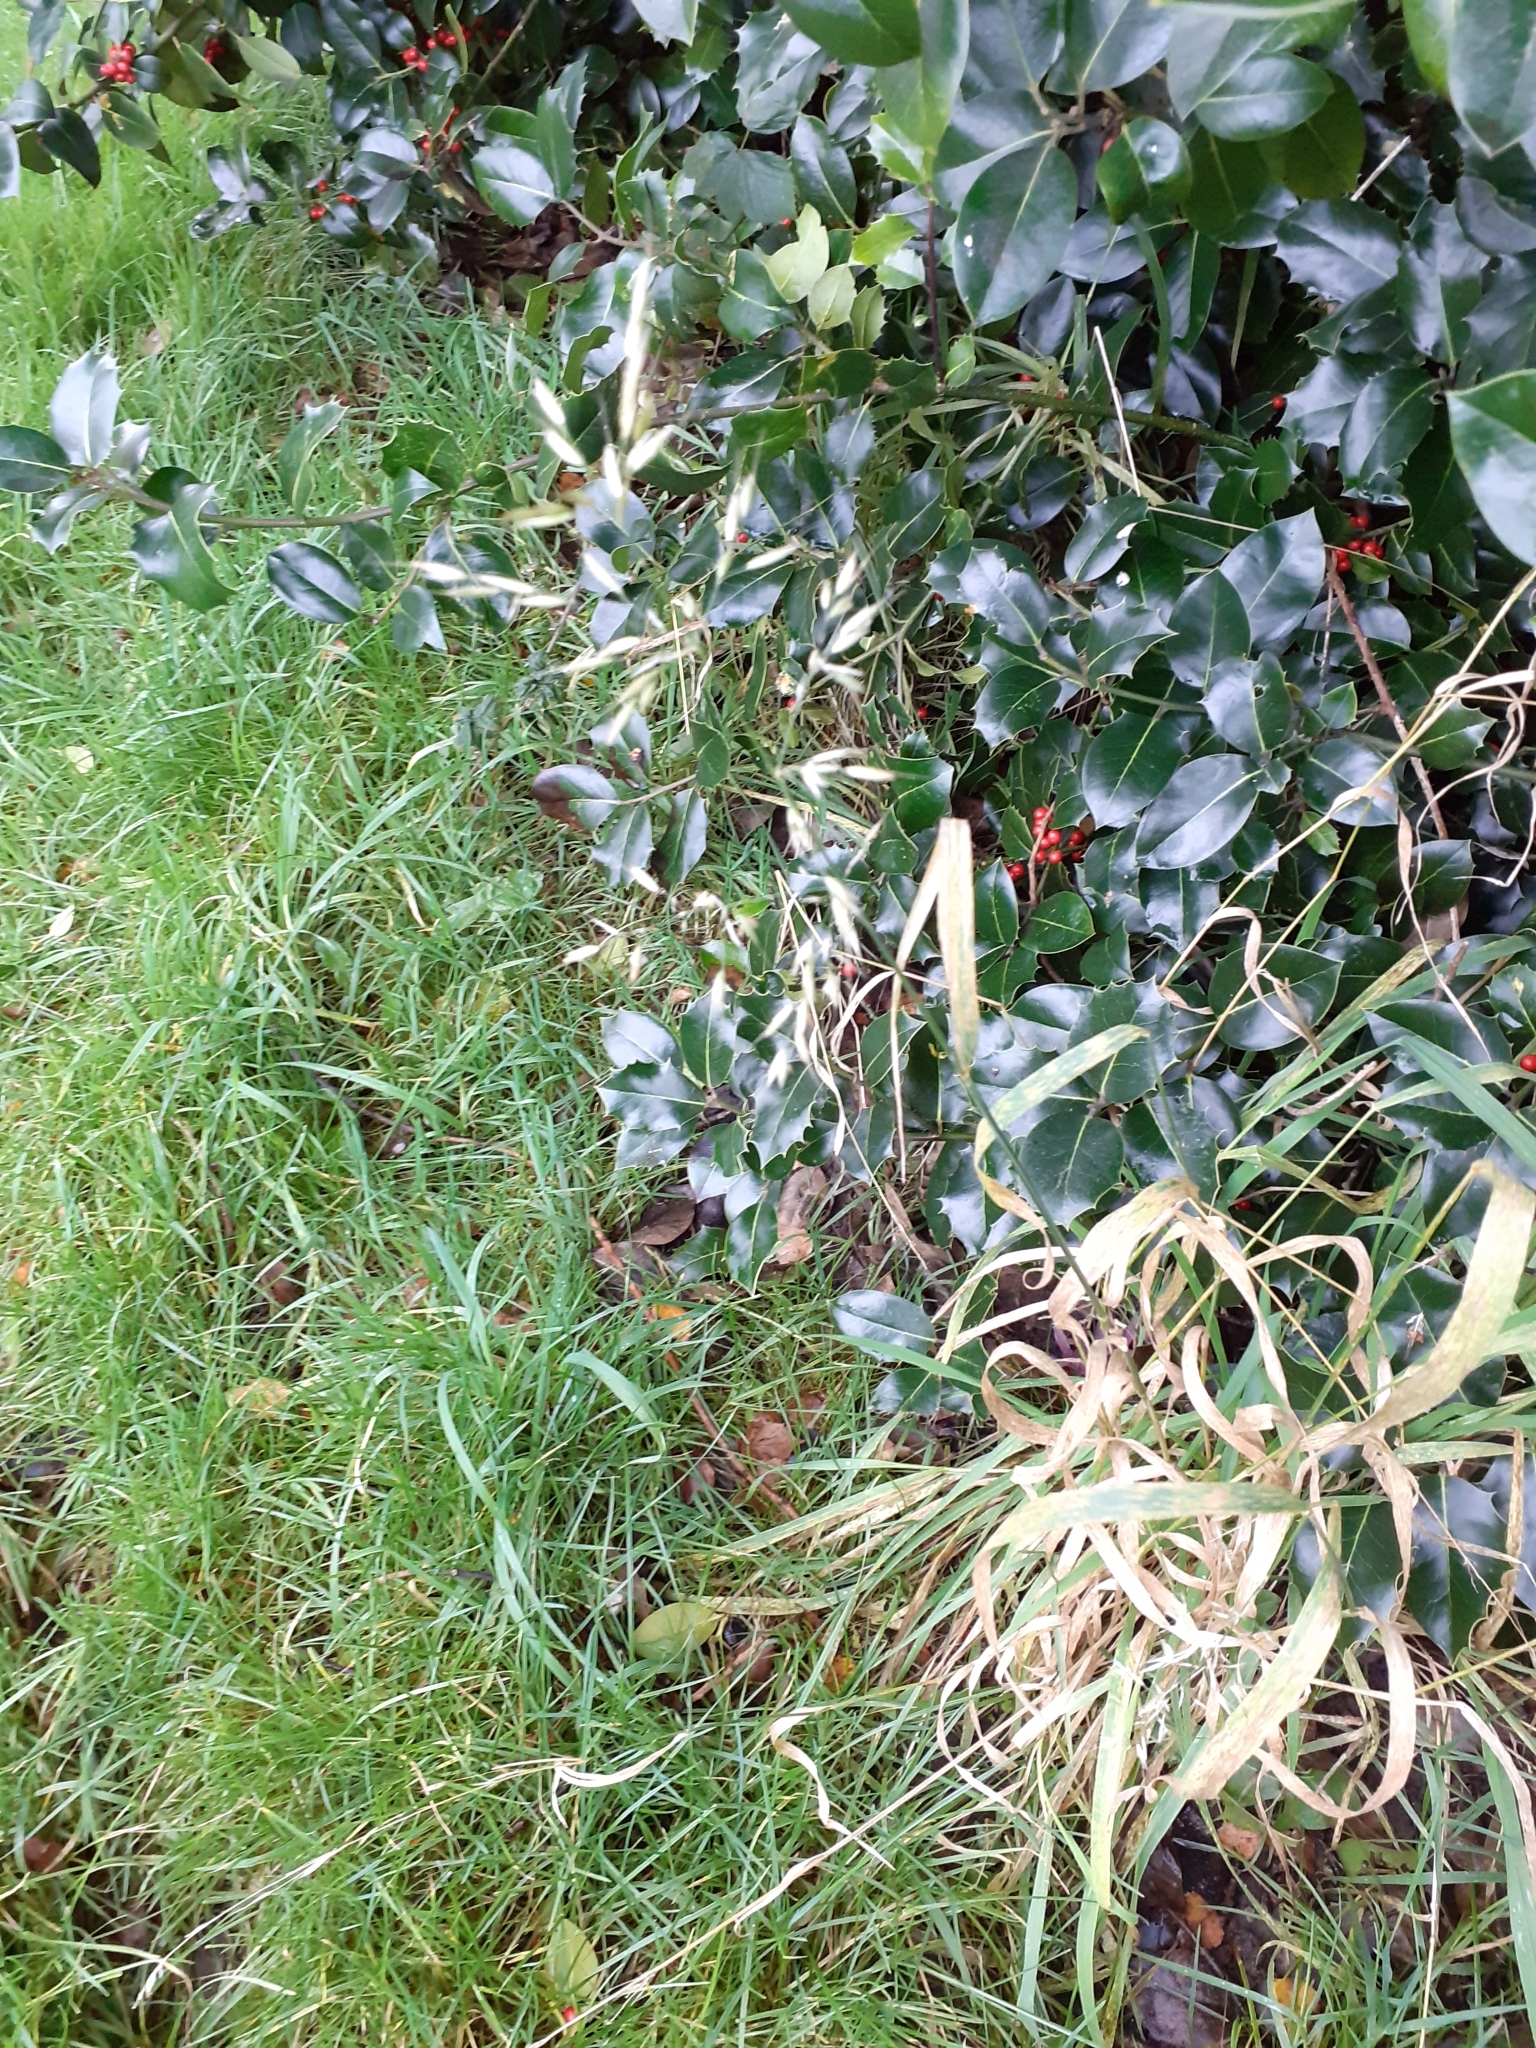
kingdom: Plantae
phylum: Tracheophyta
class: Liliopsida
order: Poales
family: Poaceae
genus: Arrhenatherum
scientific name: Arrhenatherum elatius
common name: Tall oatgrass
